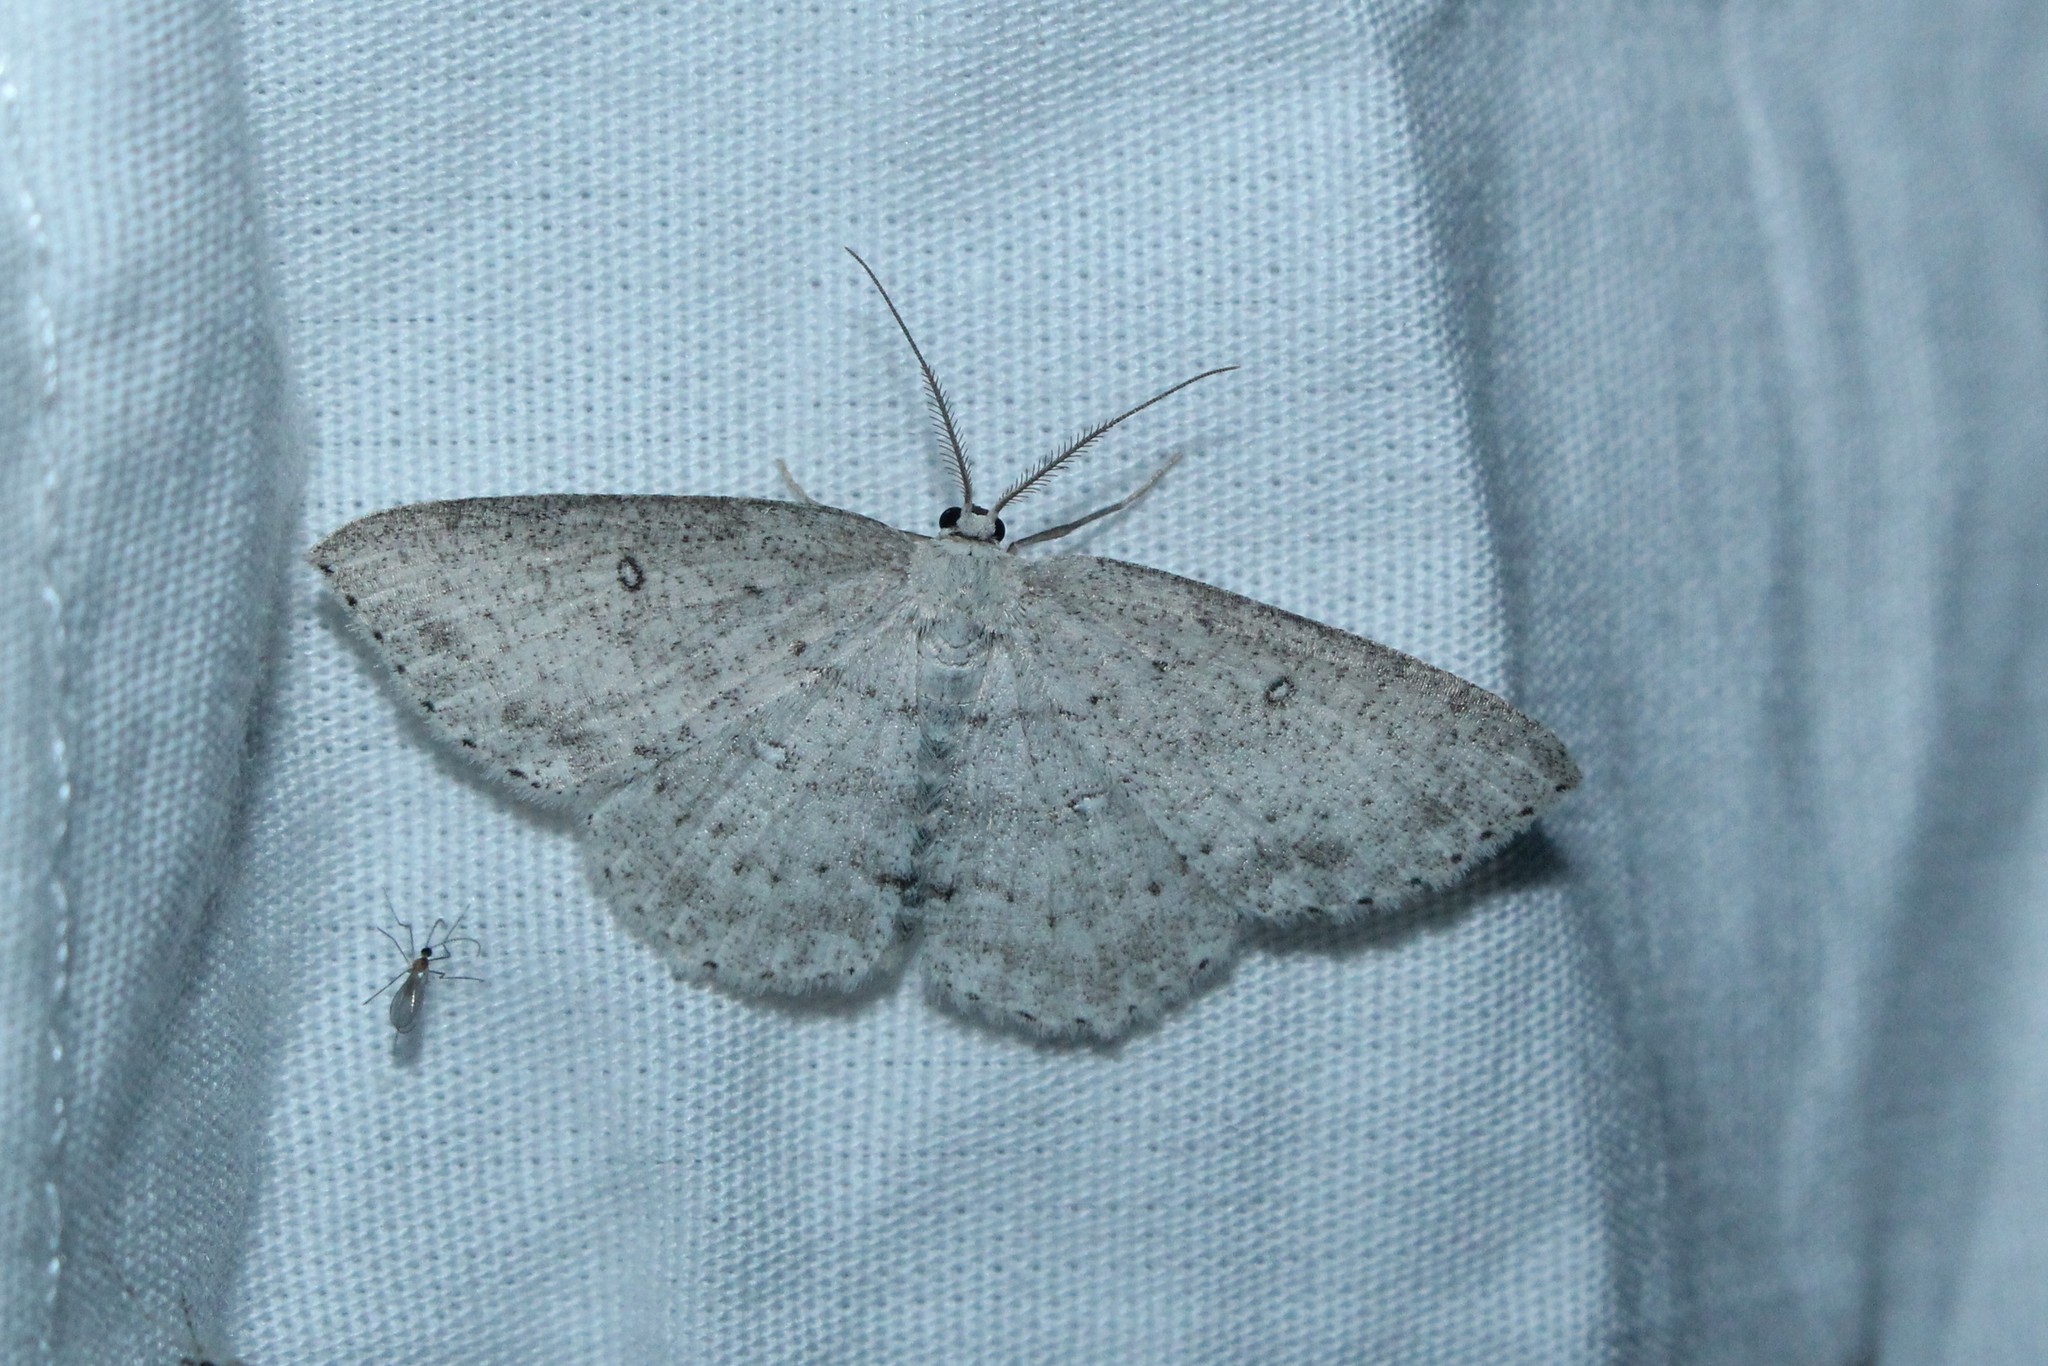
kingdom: Animalia
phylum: Arthropoda
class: Insecta
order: Lepidoptera
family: Geometridae
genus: Cyclophora
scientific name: Cyclophora pendulinaria
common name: Sweet fern geometer
